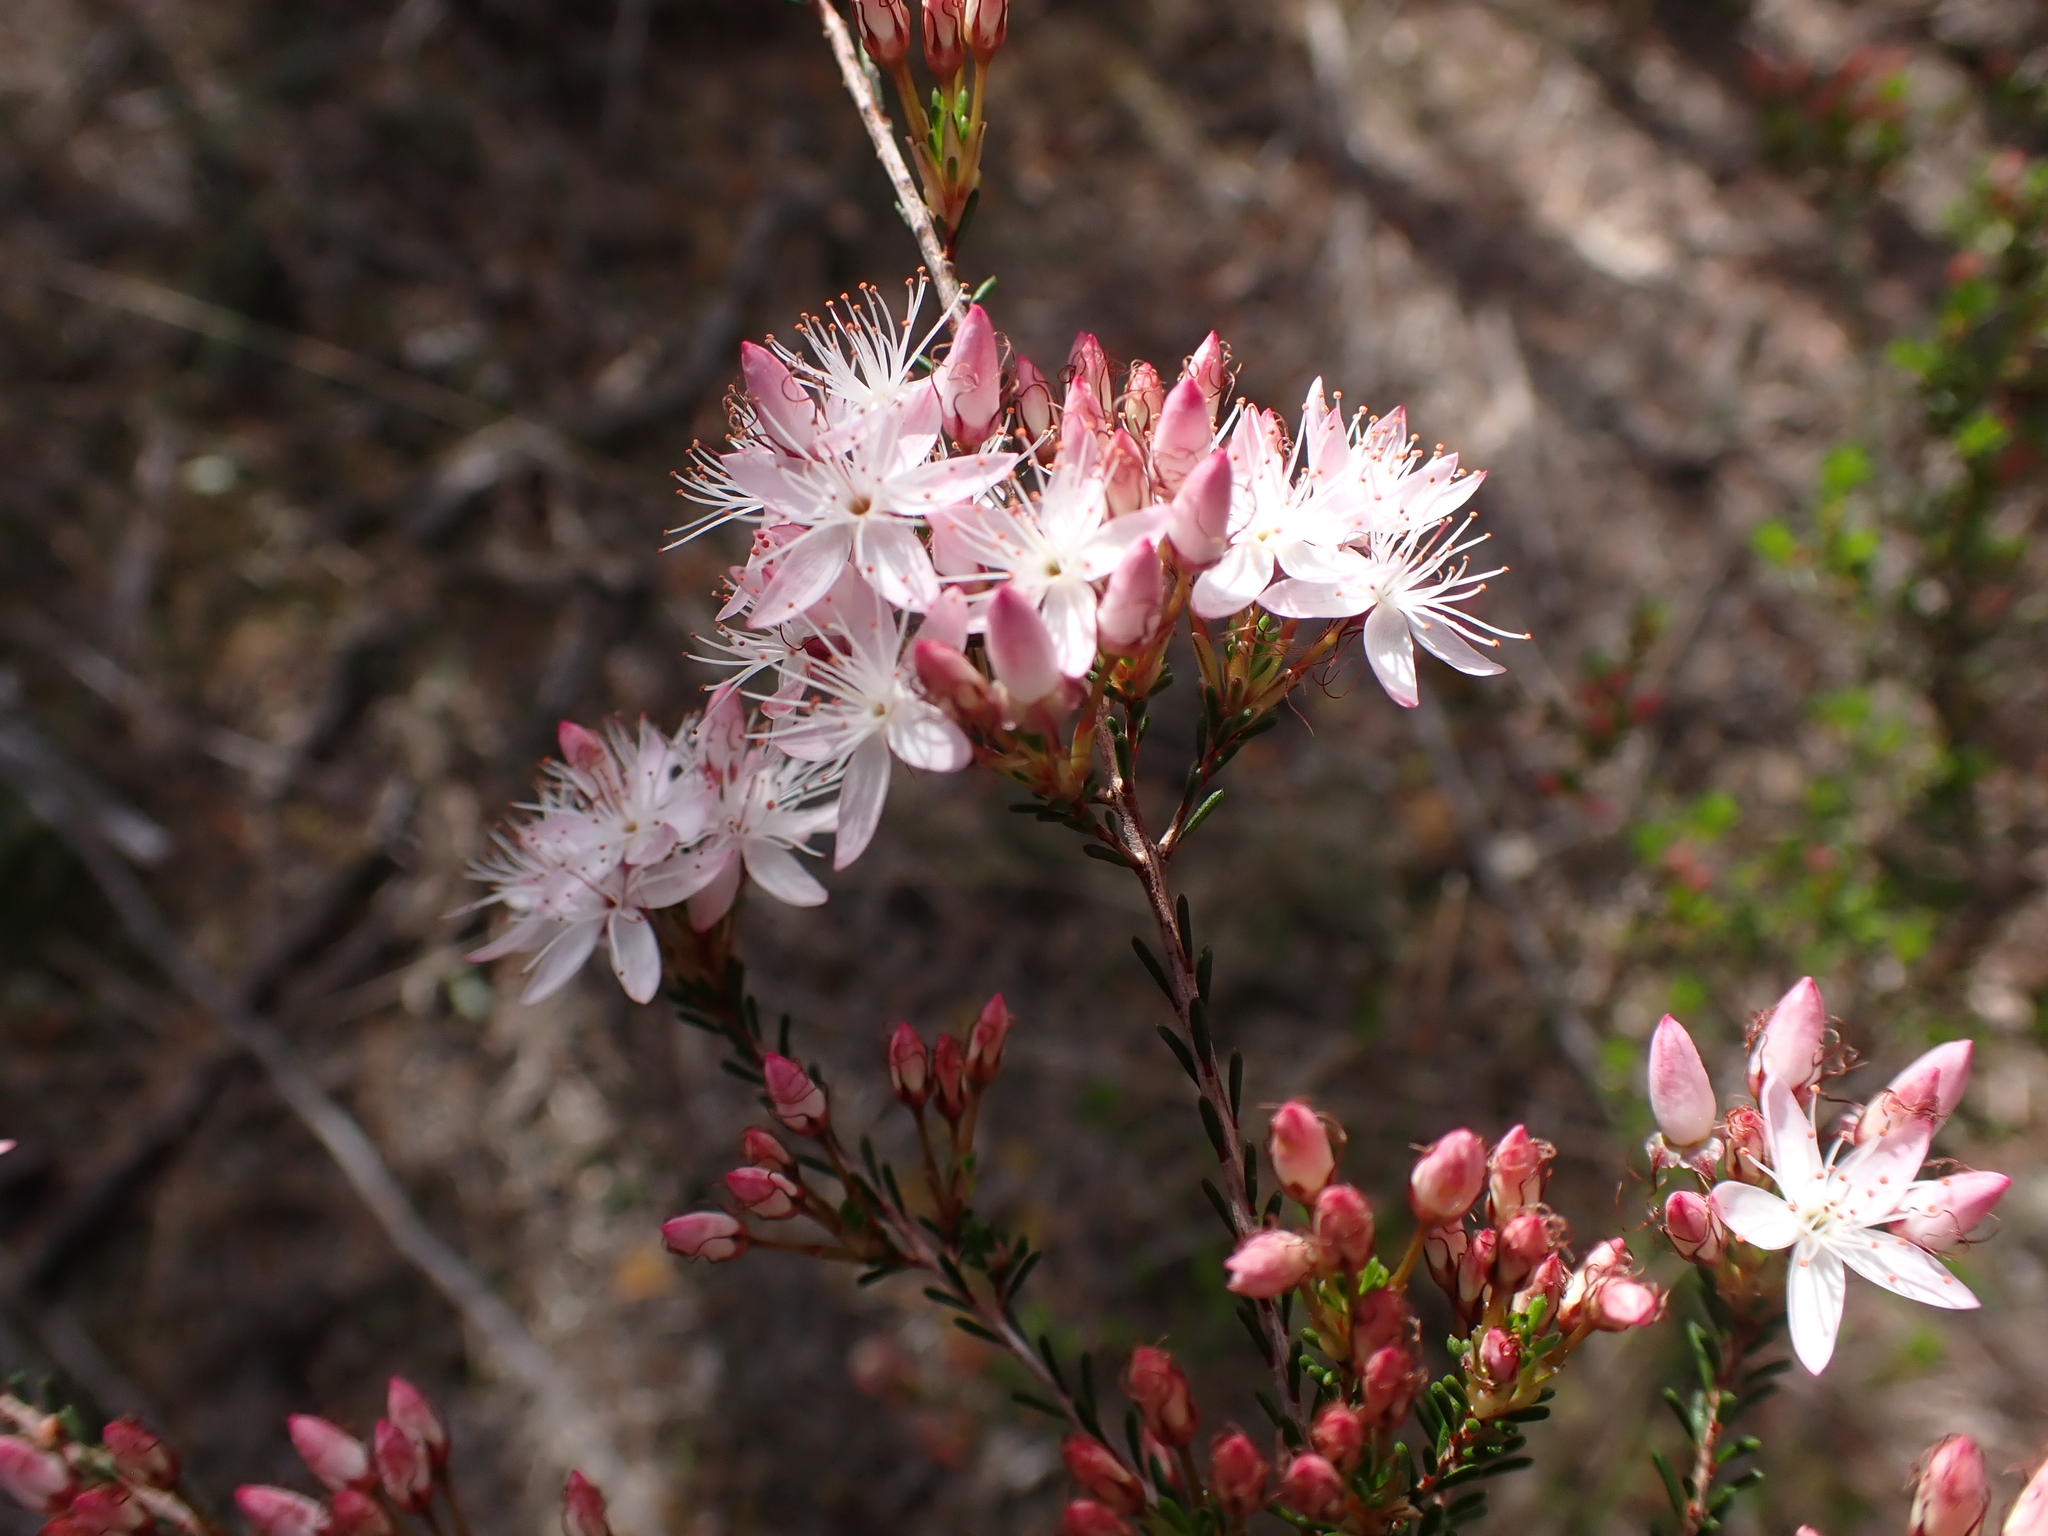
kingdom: Plantae
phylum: Tracheophyta
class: Magnoliopsida
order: Myrtales
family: Myrtaceae
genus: Calytrix
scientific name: Calytrix tetragona
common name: Common fringe myrtle
